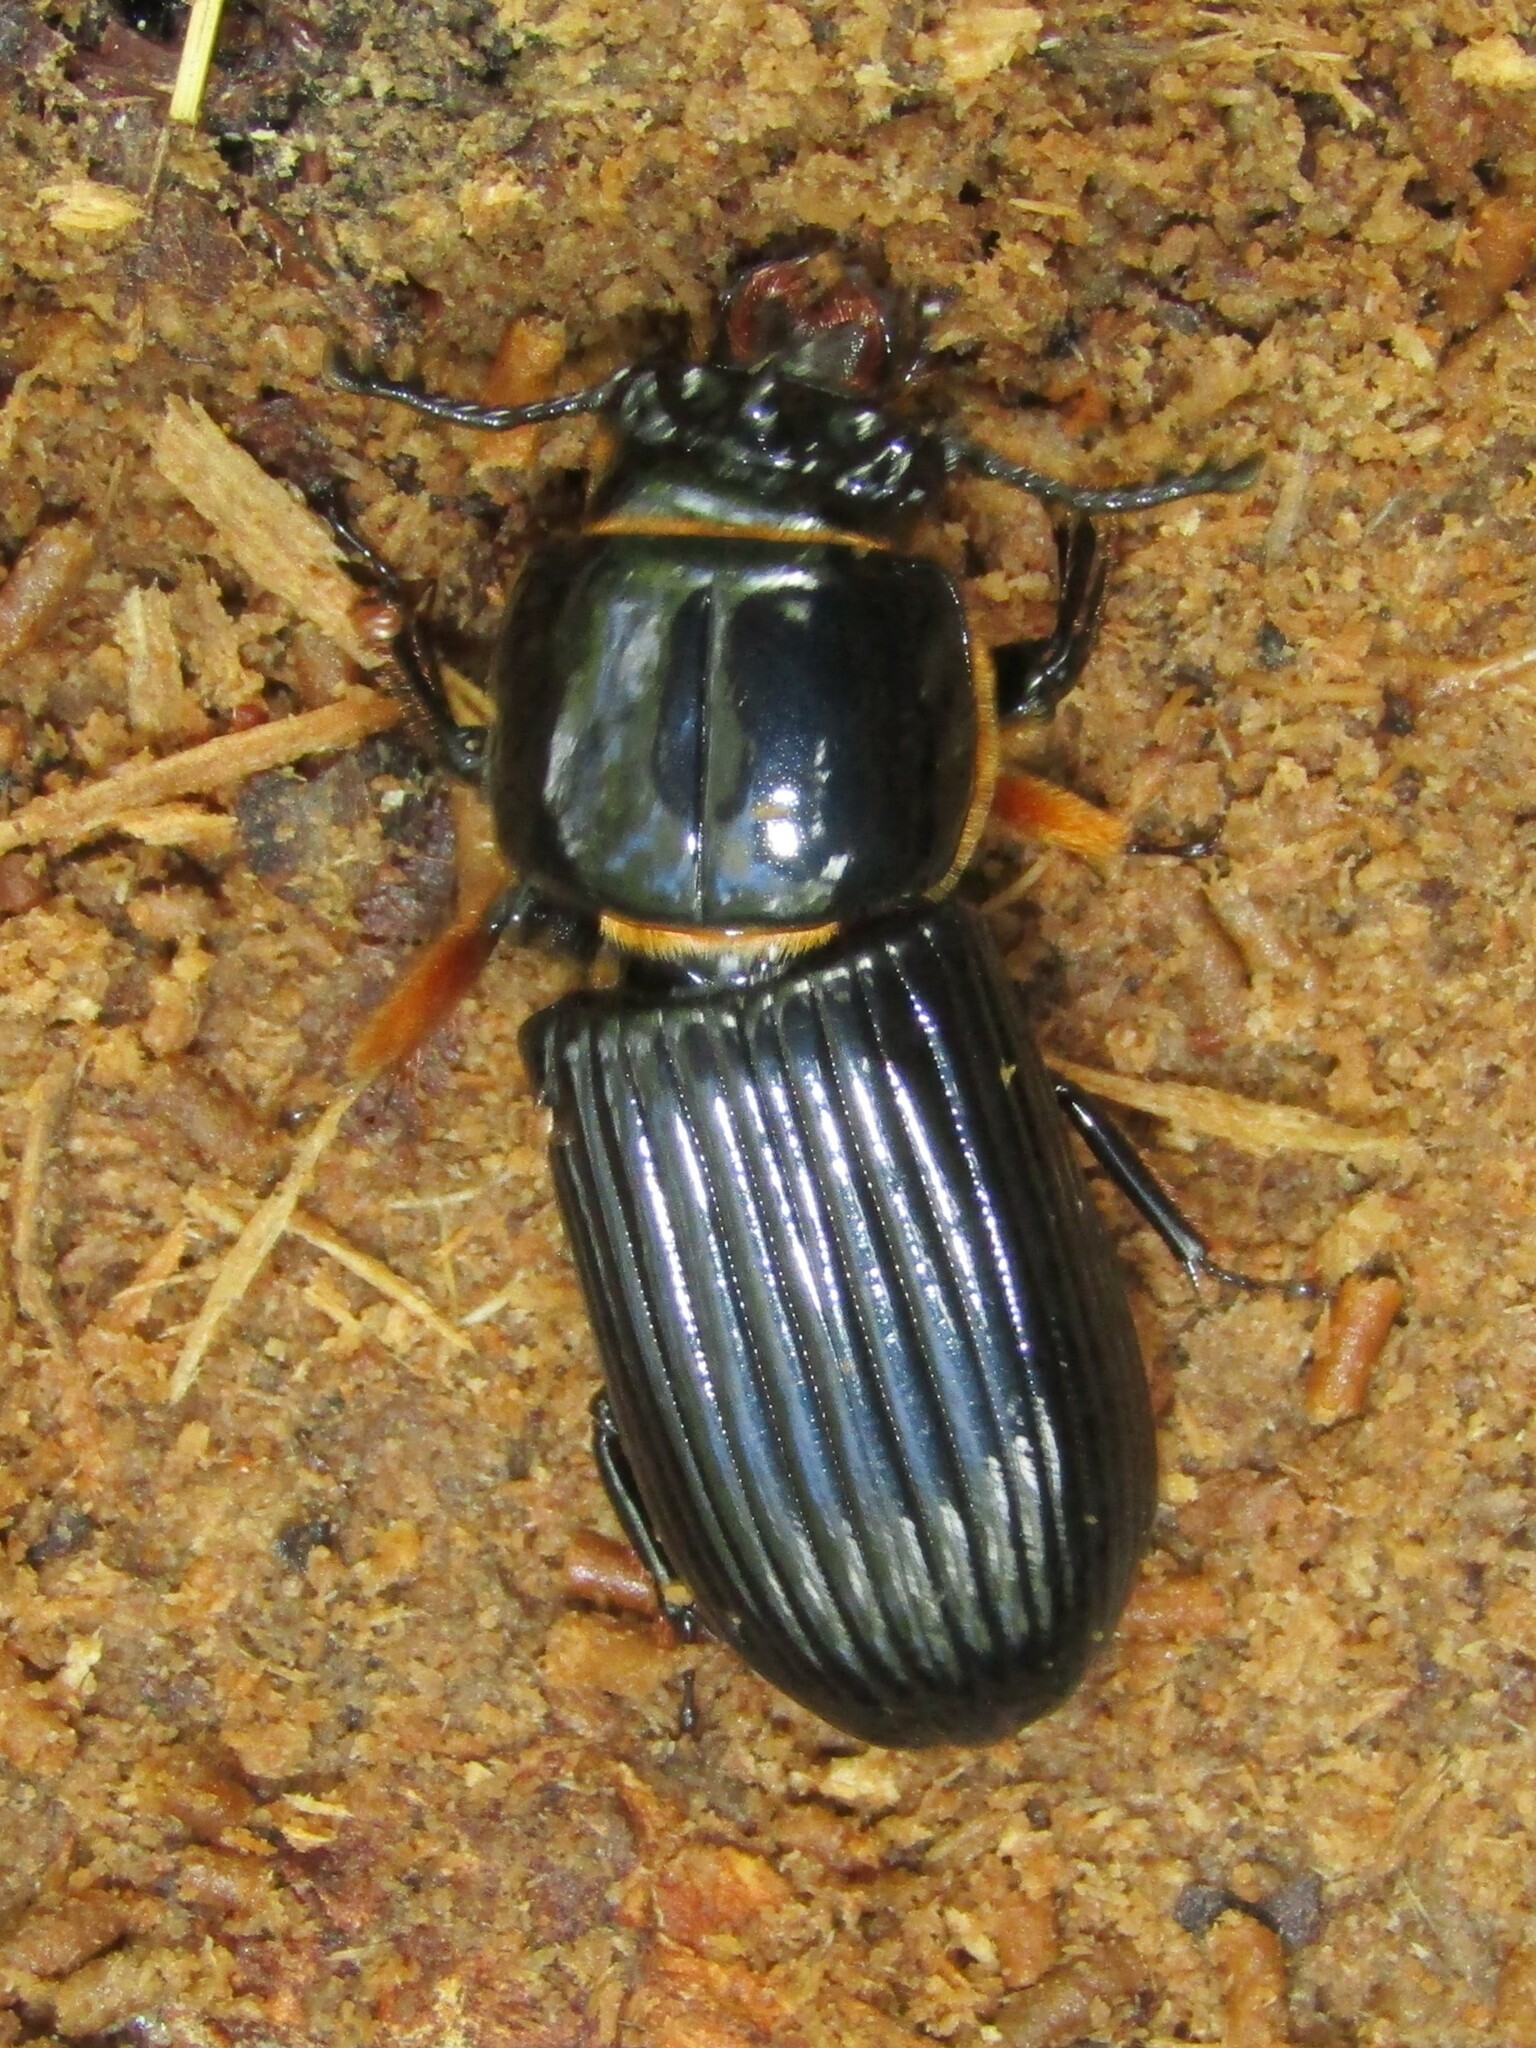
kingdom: Animalia
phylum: Arthropoda
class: Insecta
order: Coleoptera
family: Passalidae
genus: Odontotaenius
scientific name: Odontotaenius disjunctus
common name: Patent leather beetle
